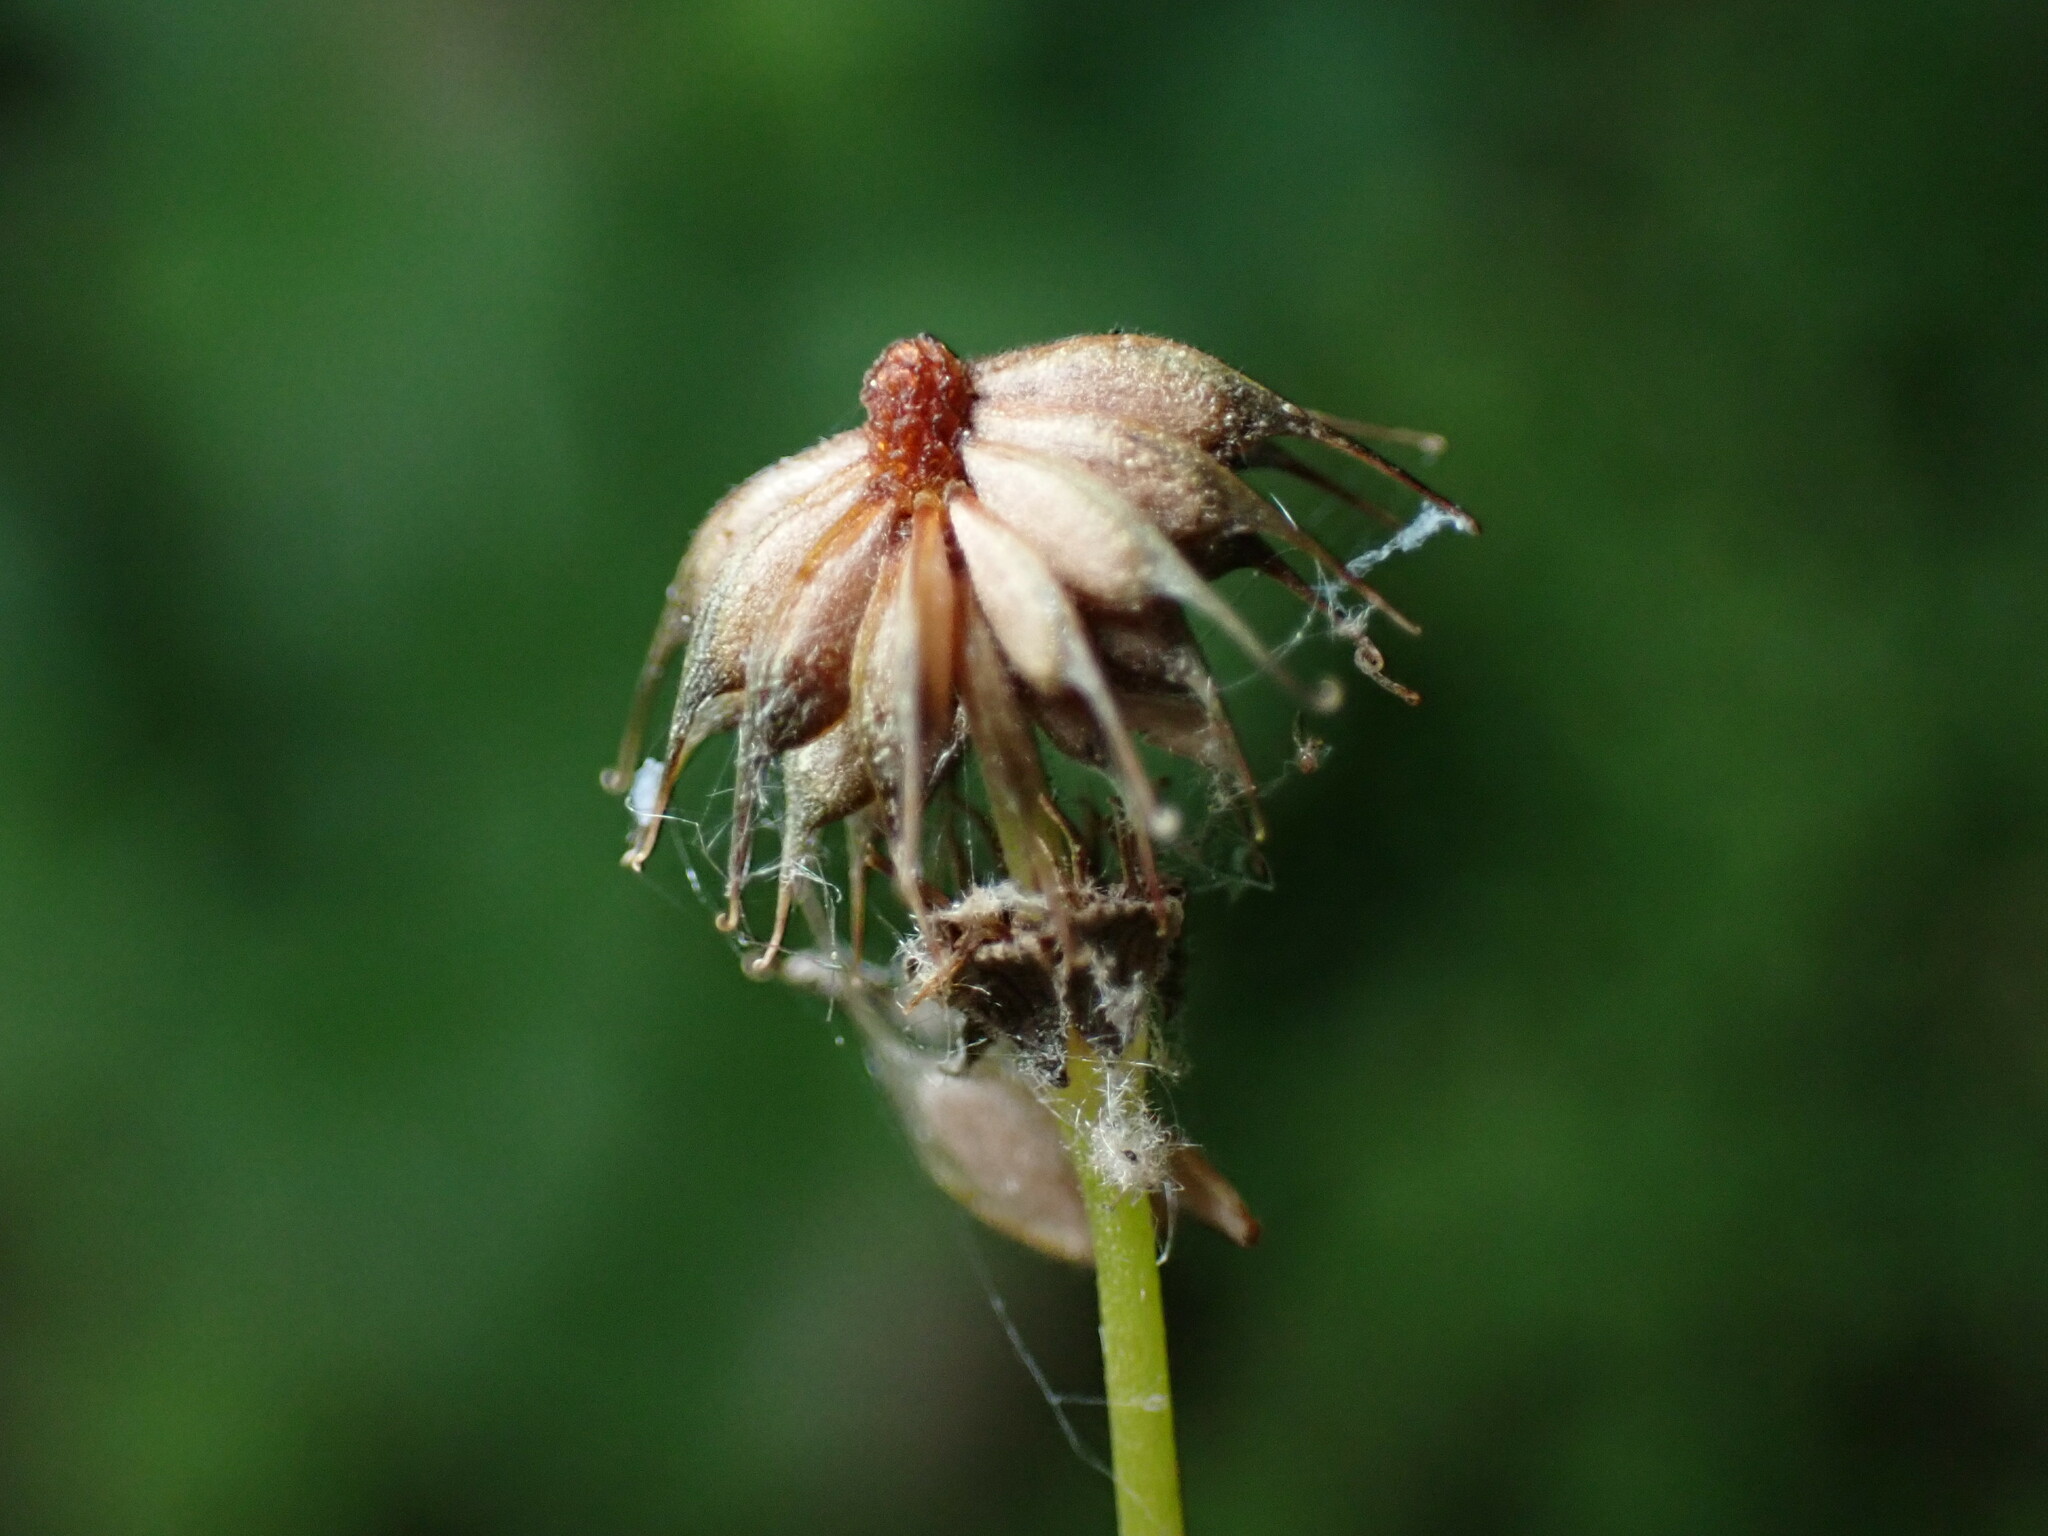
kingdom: Plantae
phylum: Tracheophyta
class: Magnoliopsida
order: Rosales
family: Rosaceae
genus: Geum
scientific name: Geum vernum
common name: Spring avens
